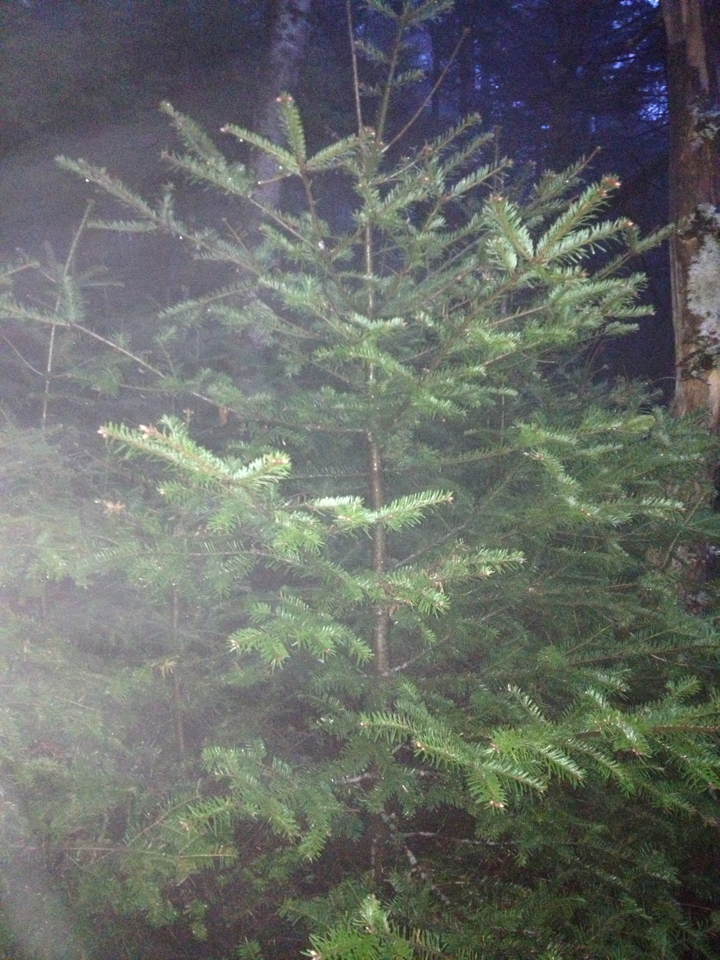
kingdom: Plantae
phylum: Tracheophyta
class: Pinopsida
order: Pinales
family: Pinaceae
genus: Abies
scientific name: Abies balsamea
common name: Balsam fir
